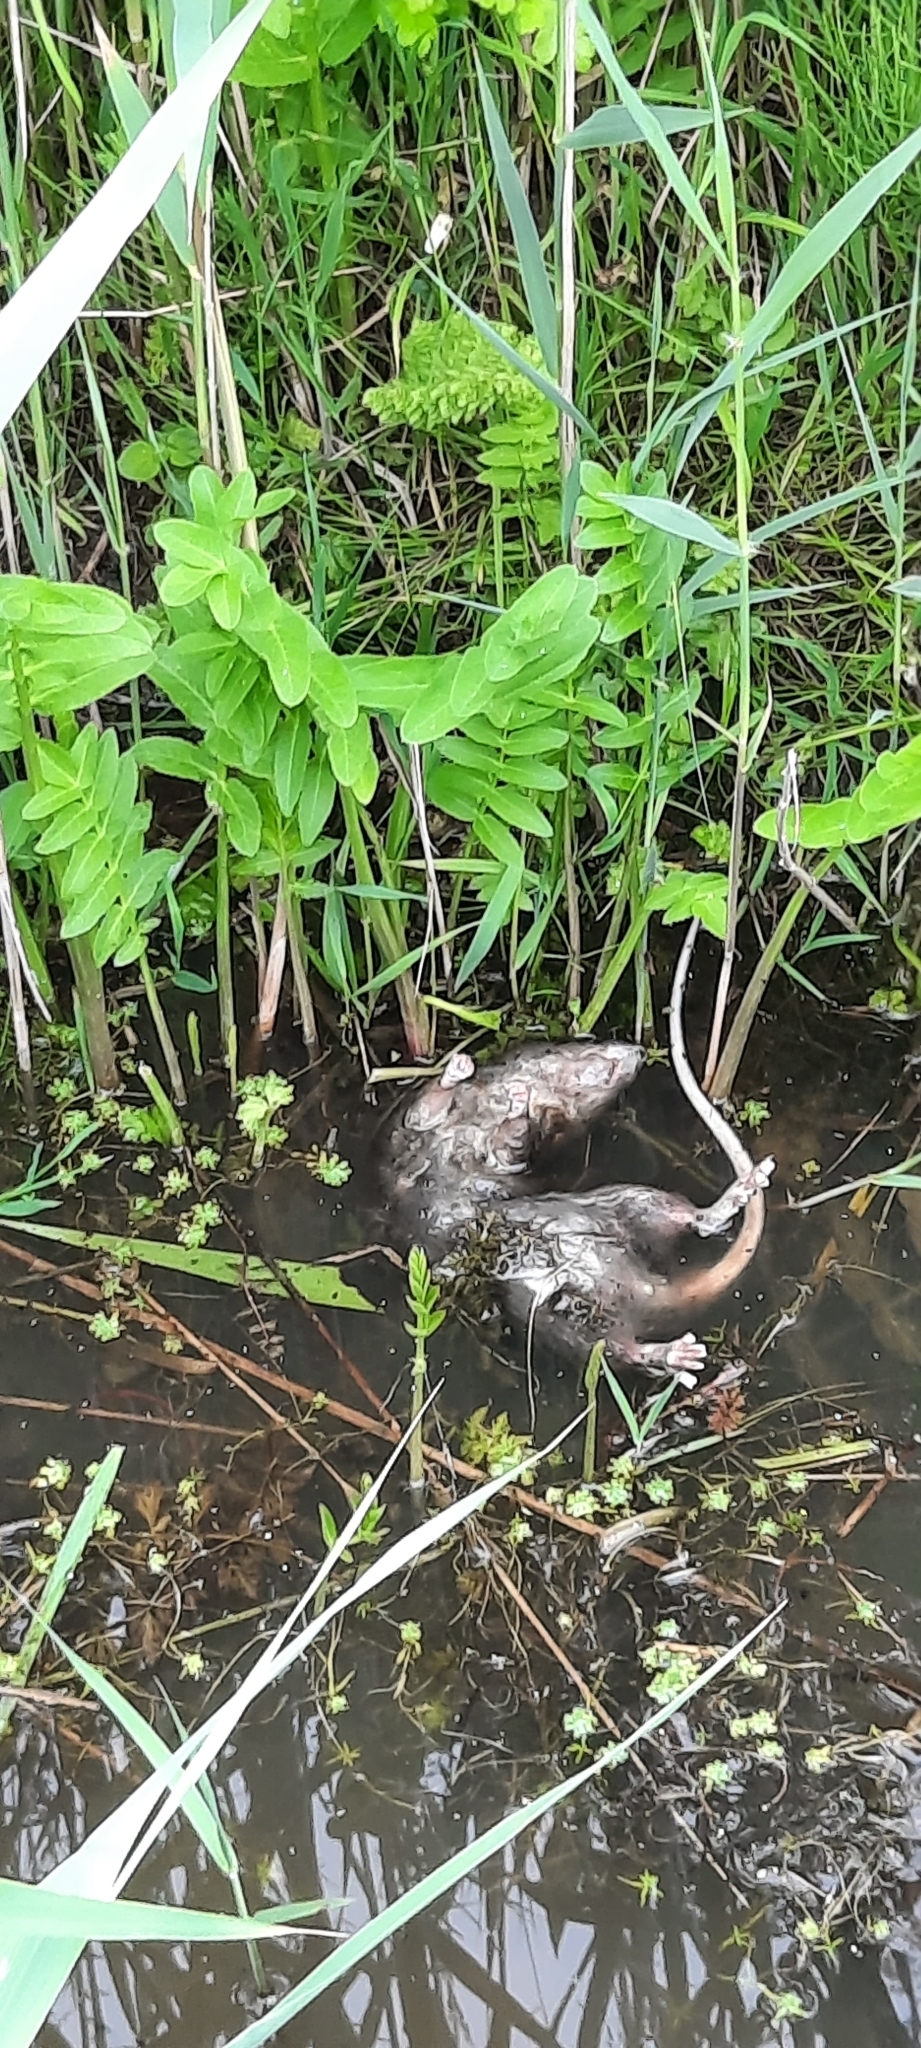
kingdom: Animalia
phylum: Chordata
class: Mammalia
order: Rodentia
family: Muridae
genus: Rattus
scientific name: Rattus norvegicus
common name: Brown rat
